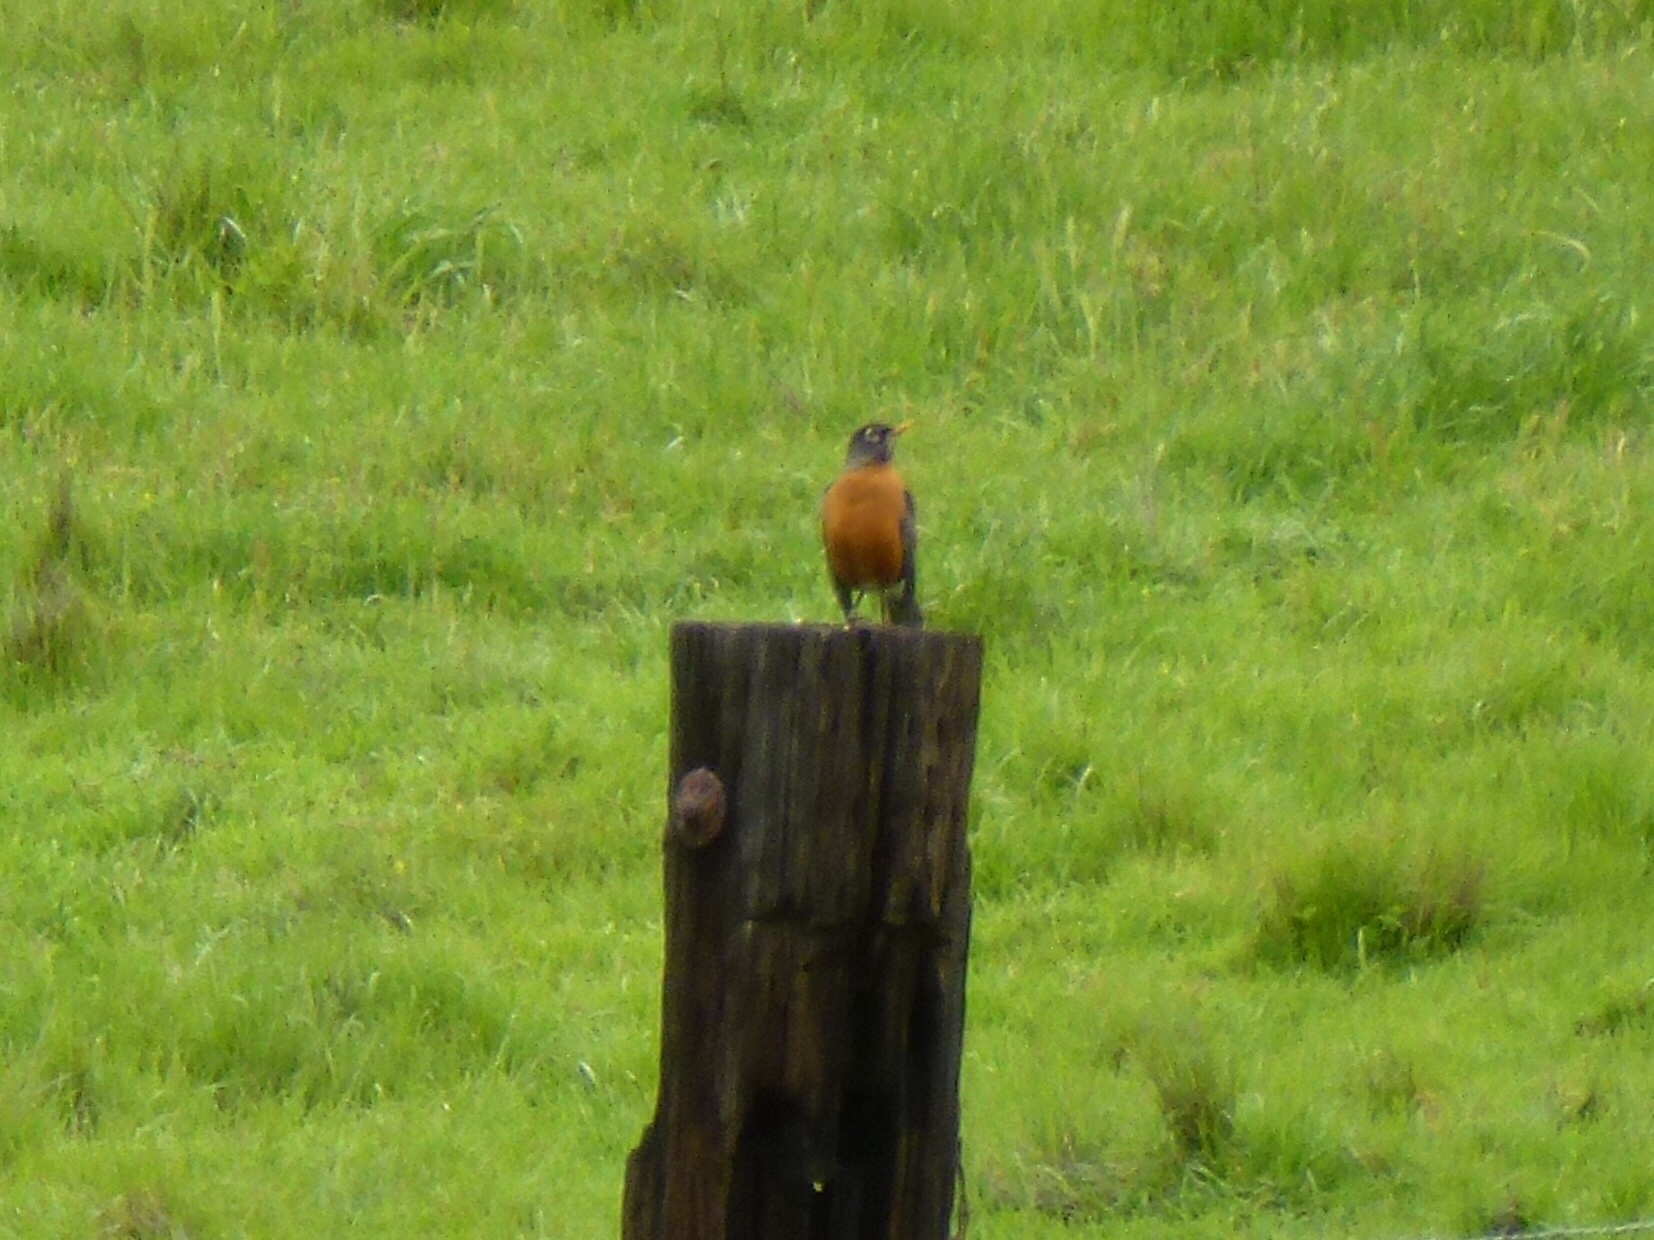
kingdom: Animalia
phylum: Chordata
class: Aves
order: Passeriformes
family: Turdidae
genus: Turdus
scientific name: Turdus migratorius
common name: American robin
